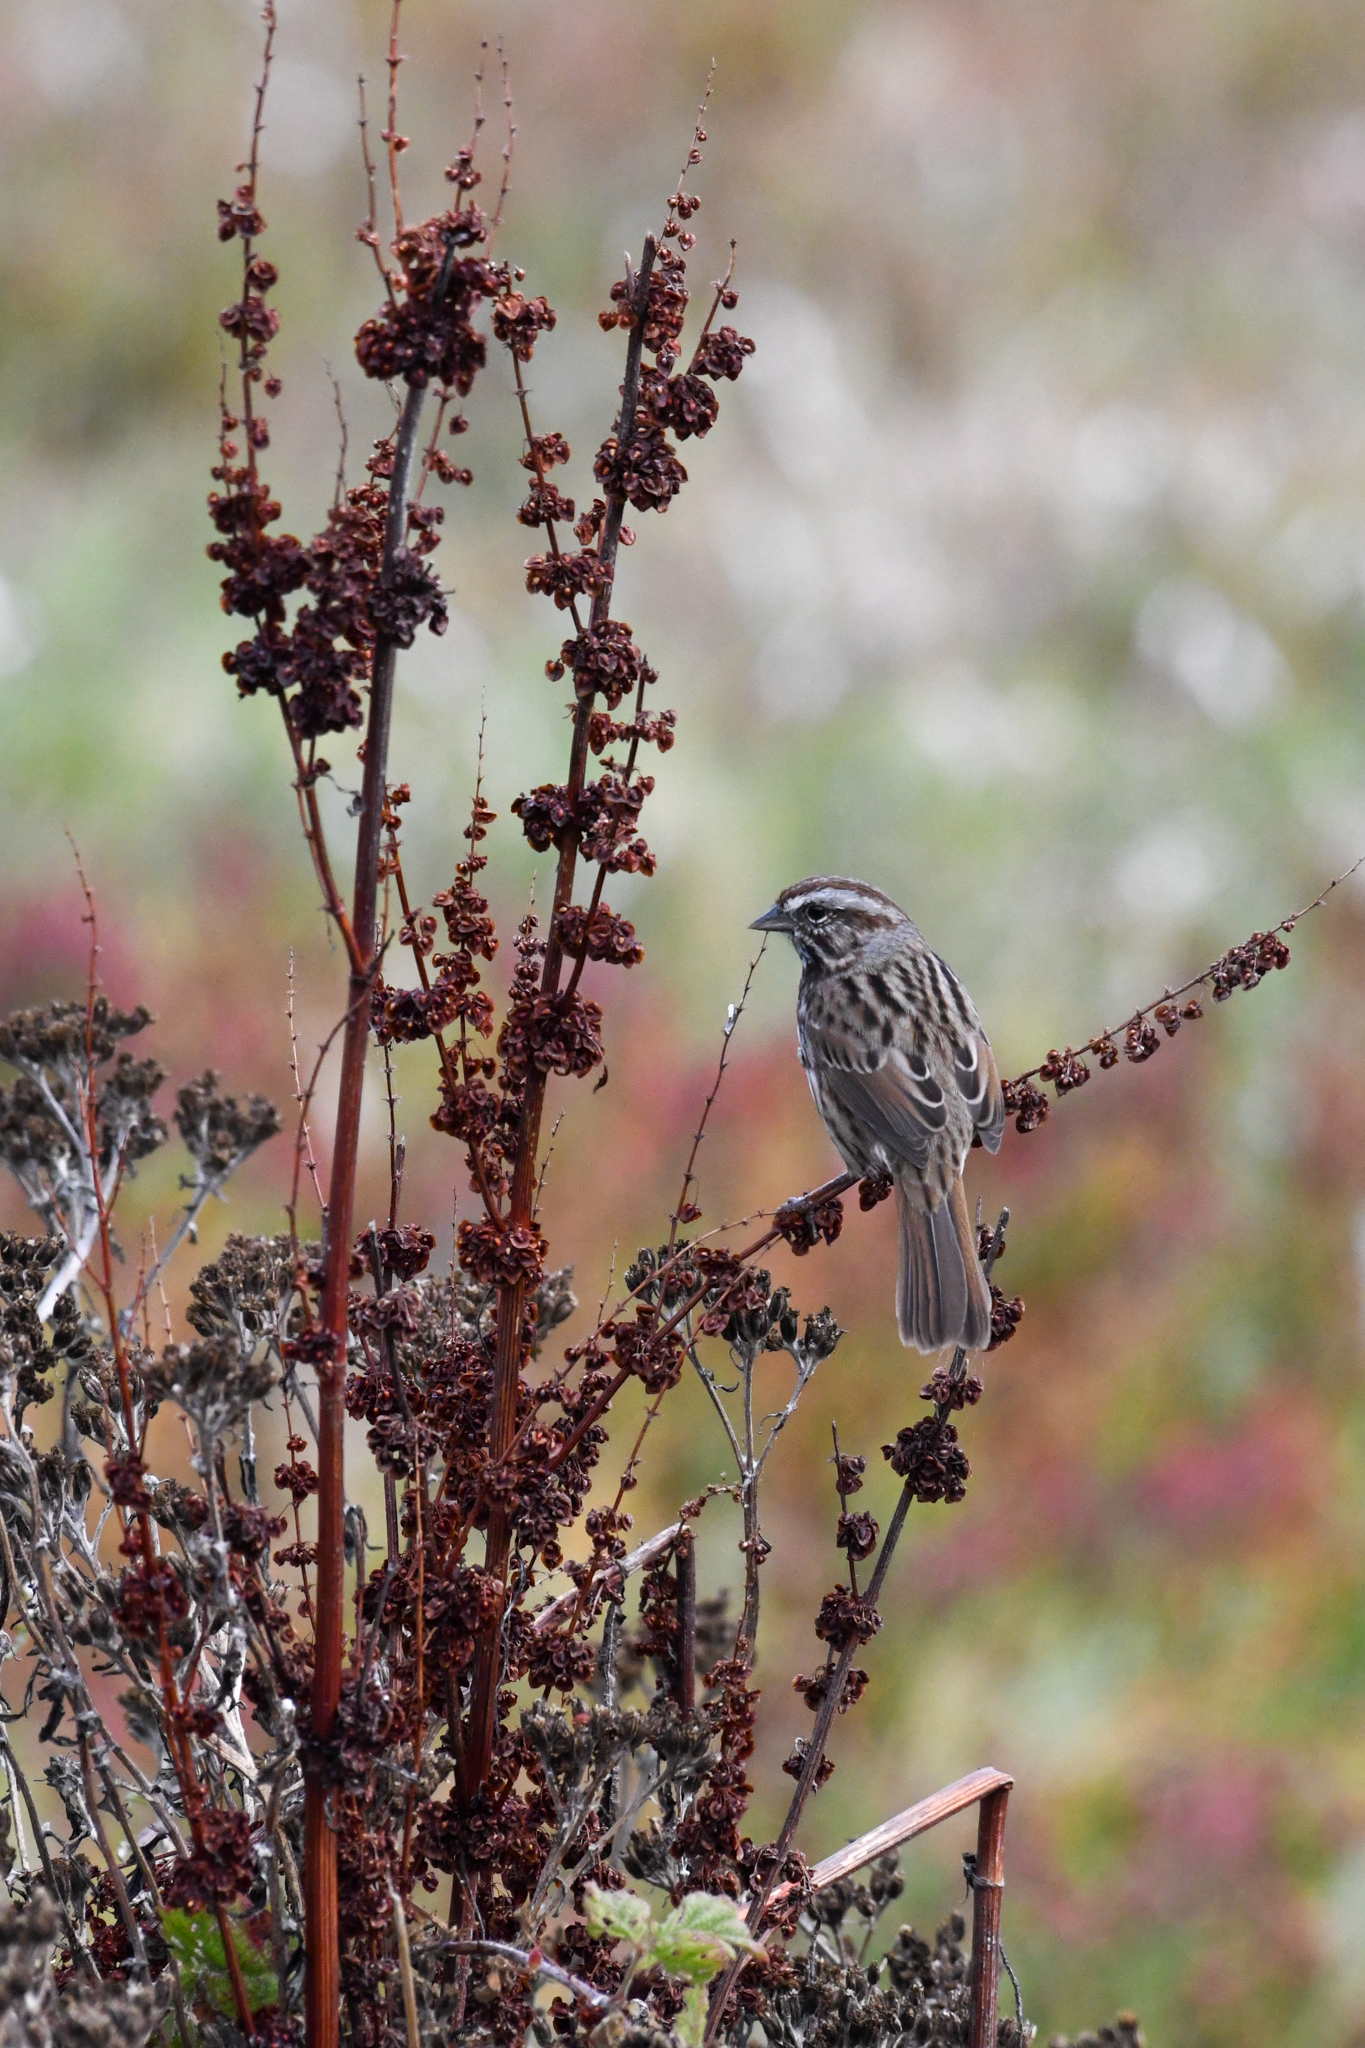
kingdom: Animalia
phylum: Chordata
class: Aves
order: Passeriformes
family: Passerellidae
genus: Melospiza
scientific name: Melospiza melodia
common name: Song sparrow
